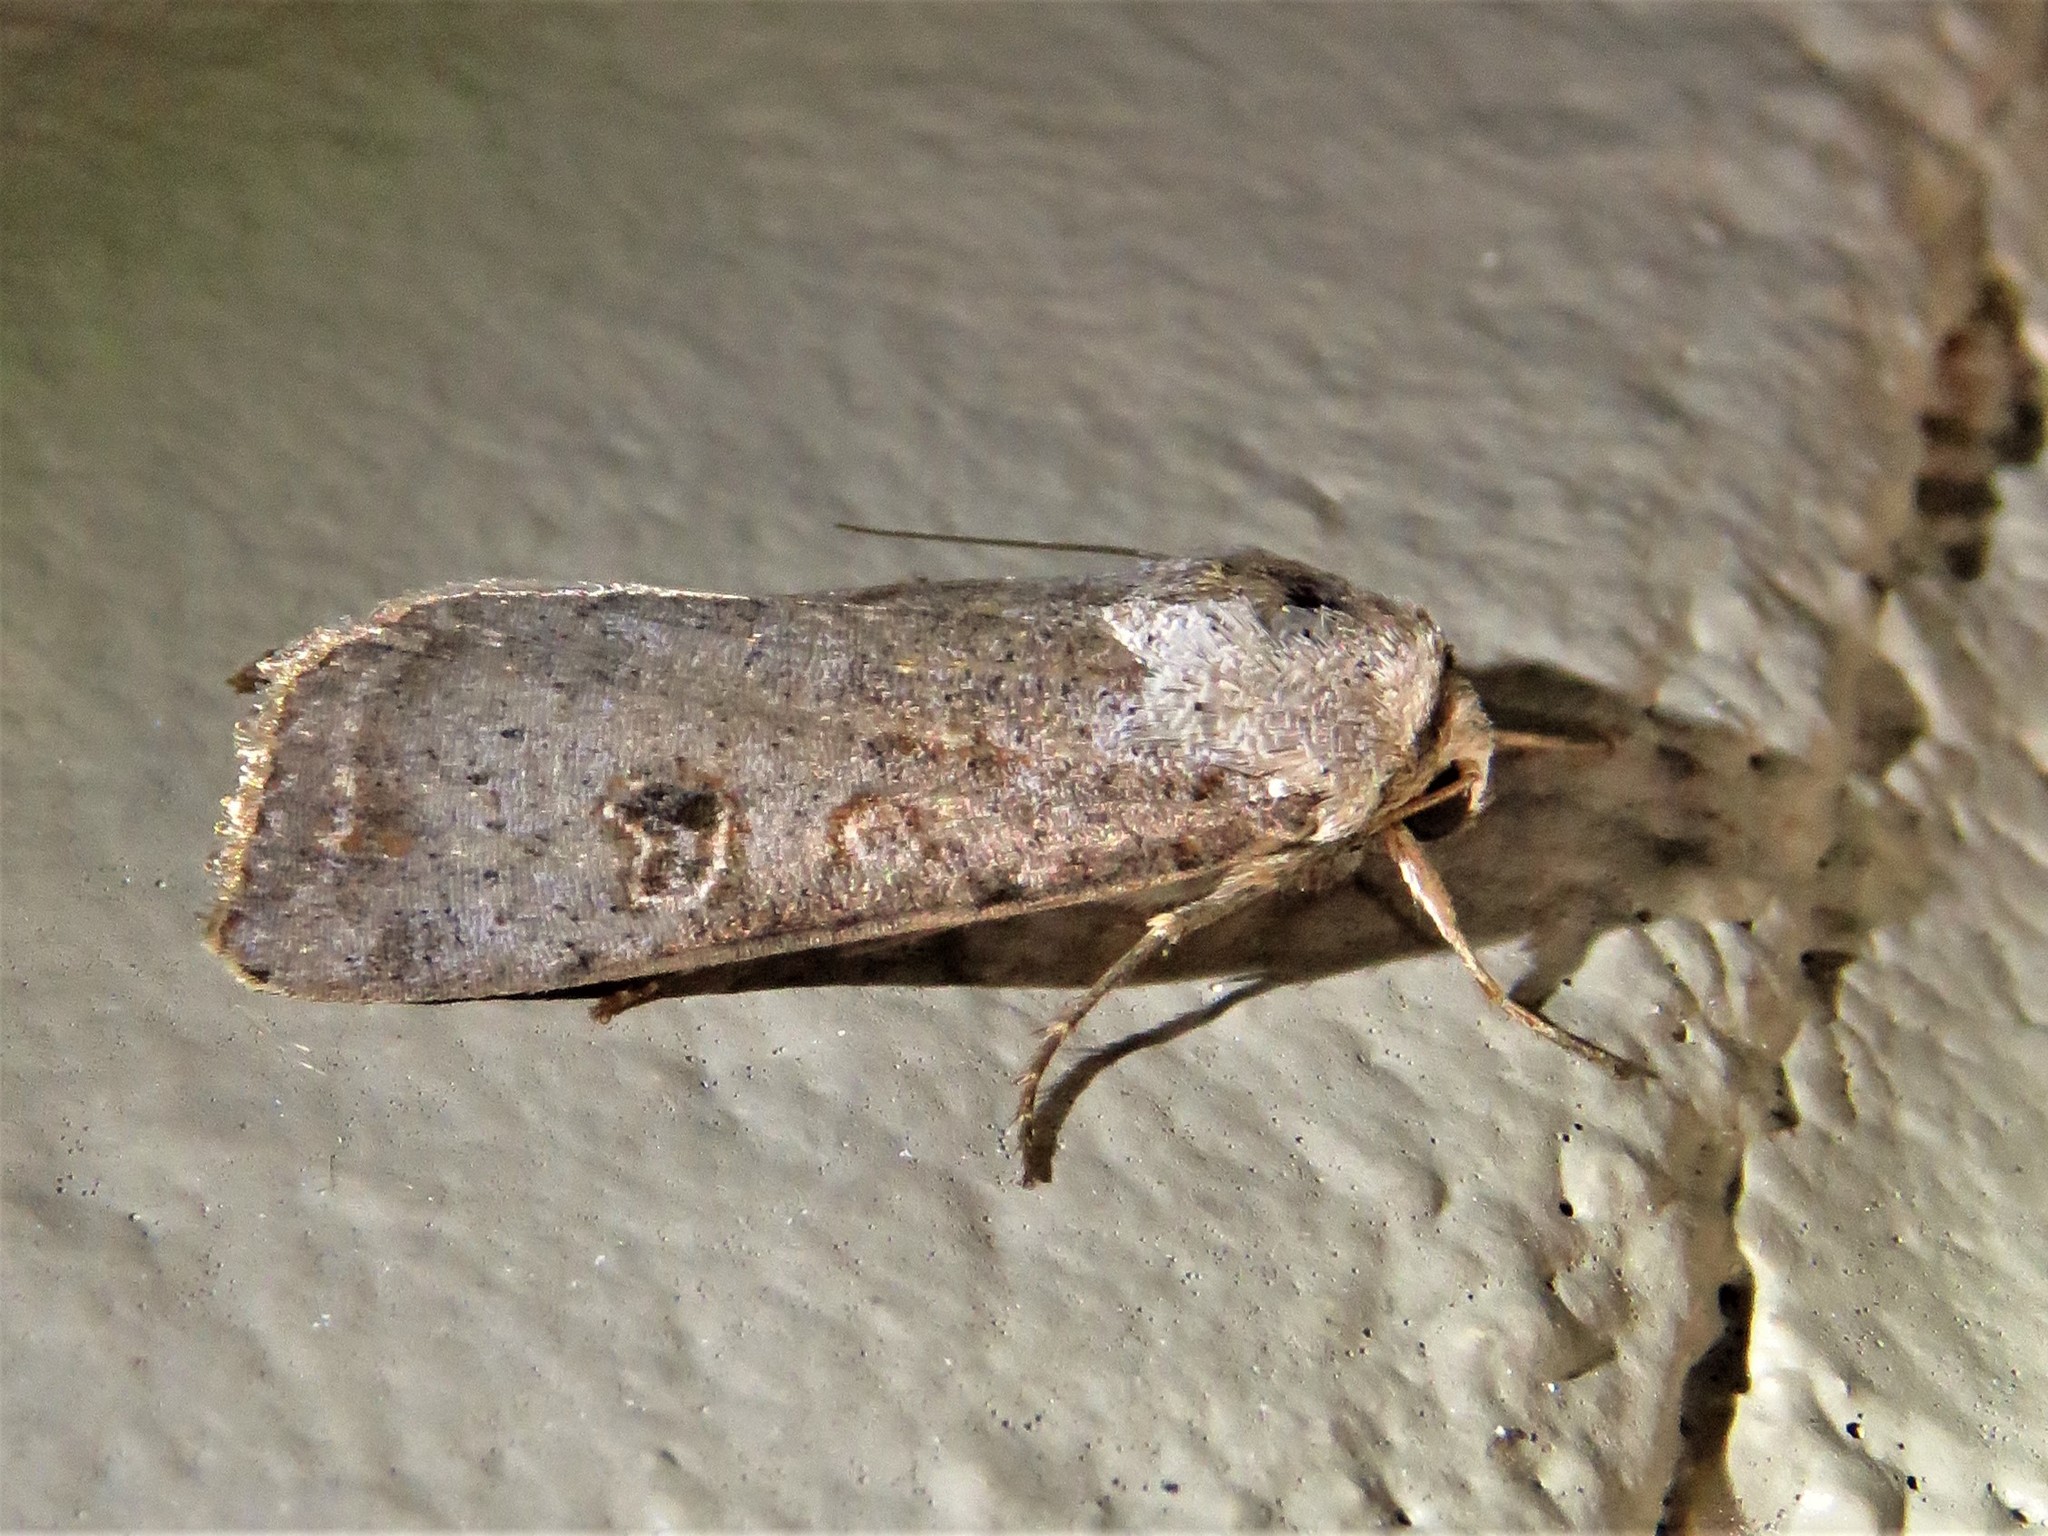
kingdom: Animalia
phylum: Arthropoda
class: Insecta
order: Lepidoptera
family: Noctuidae
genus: Anicla
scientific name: Anicla infecta
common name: Green cutworm
